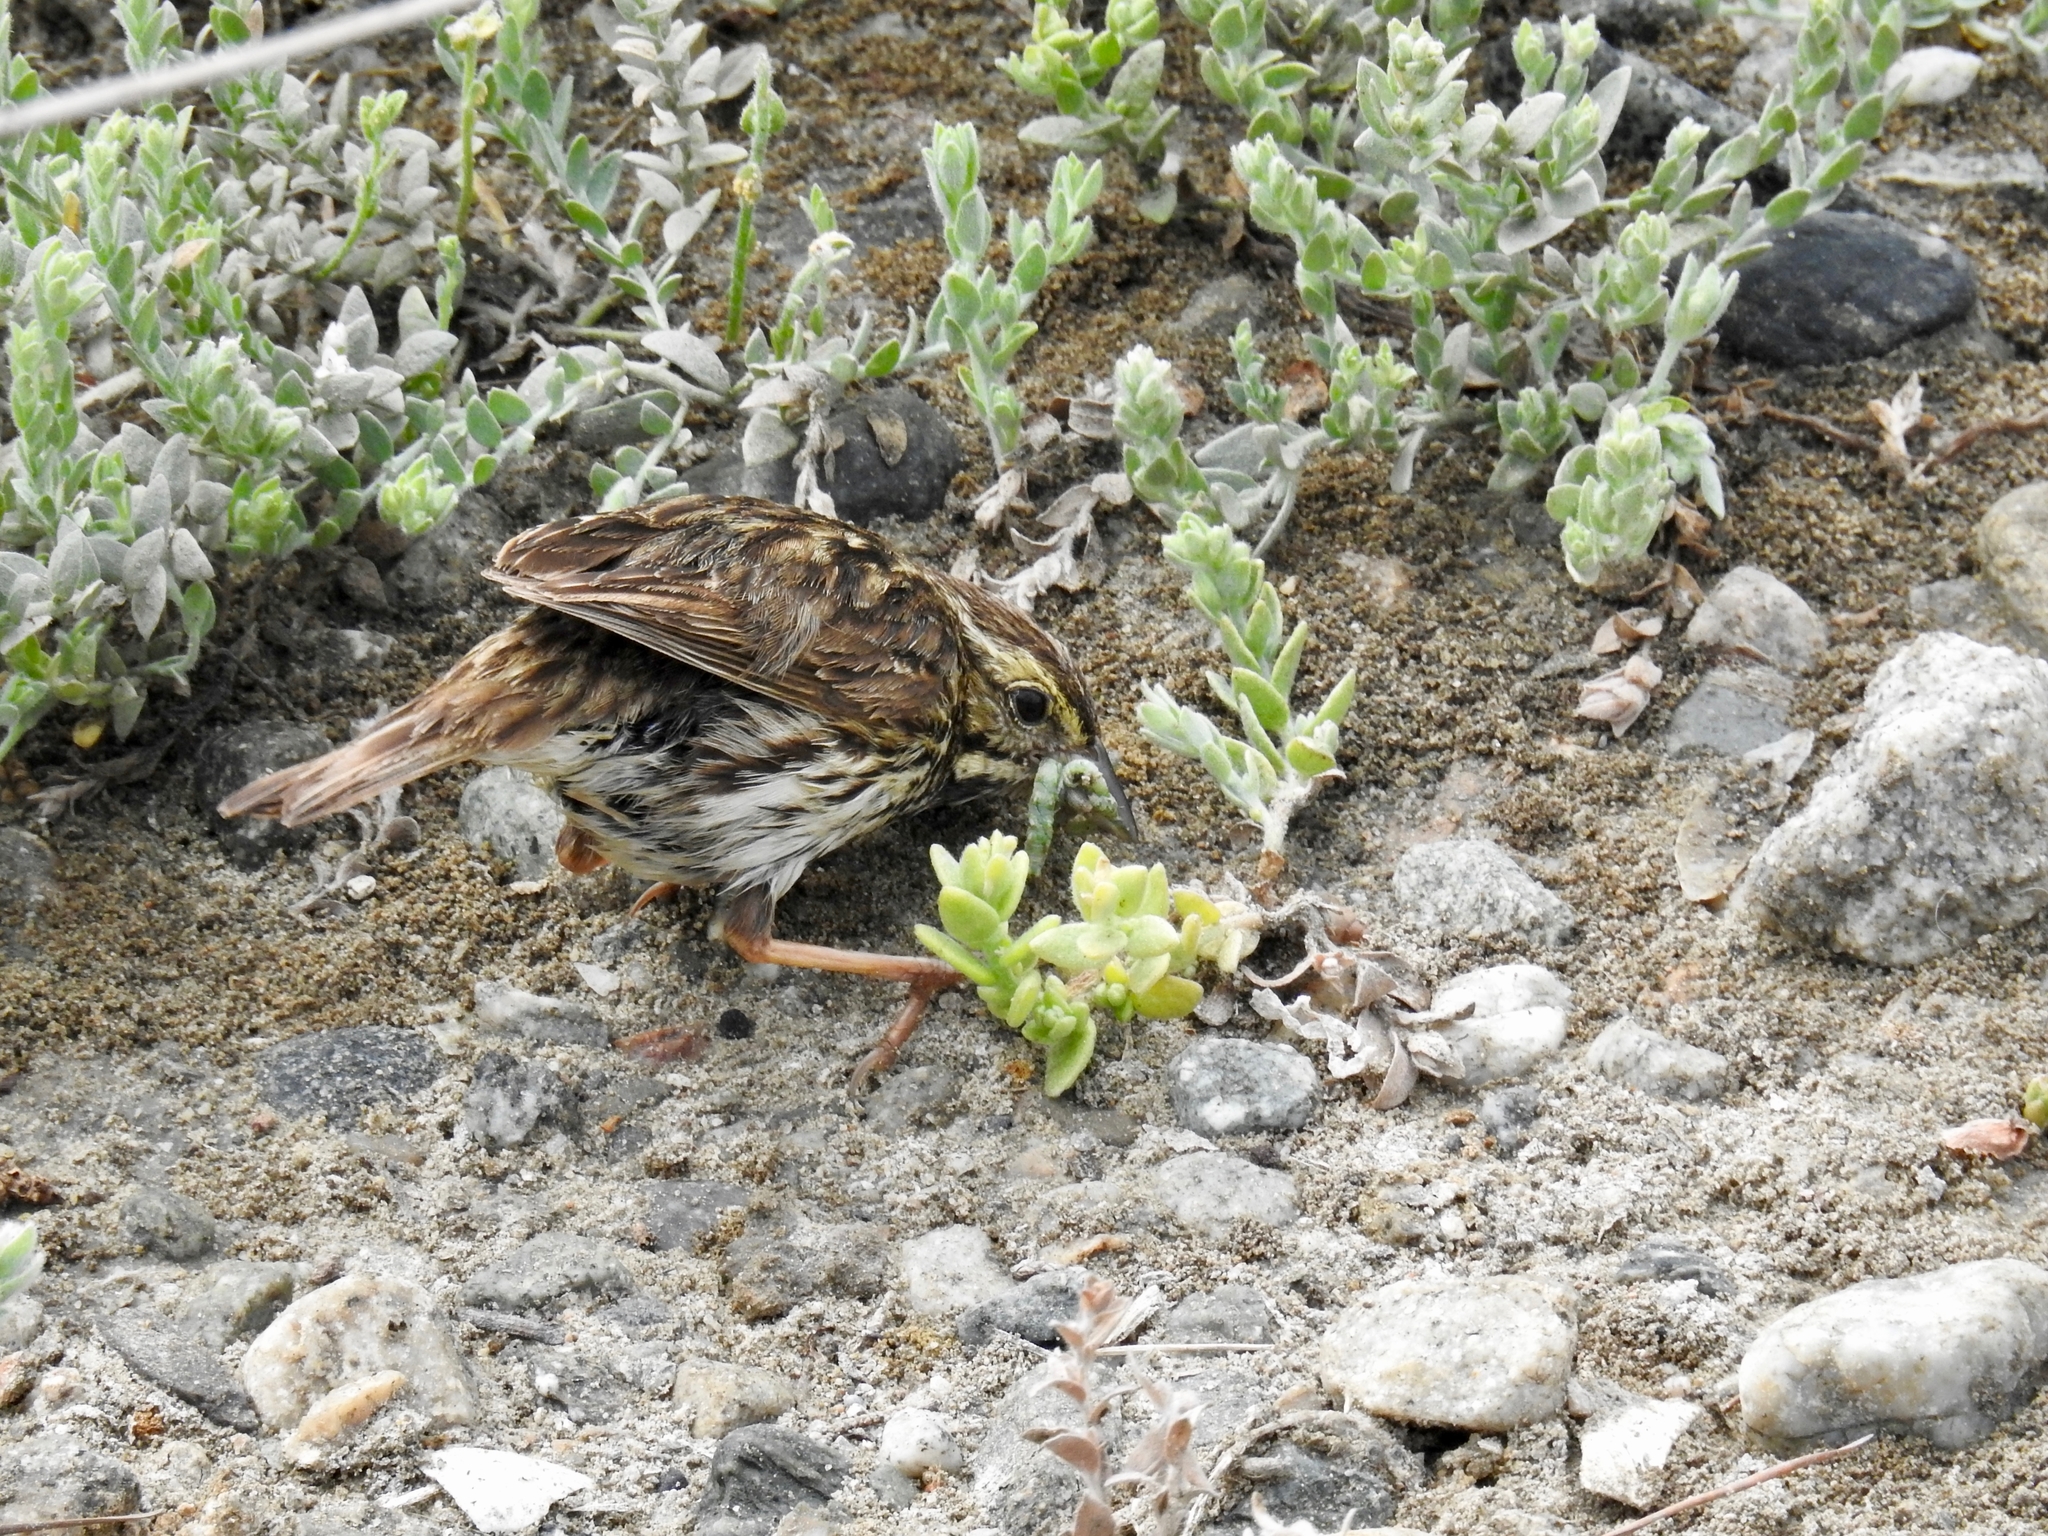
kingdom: Animalia
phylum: Chordata
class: Aves
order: Passeriformes
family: Passerellidae
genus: Passerculus
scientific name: Passerculus sandwichensis
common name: Savannah sparrow
